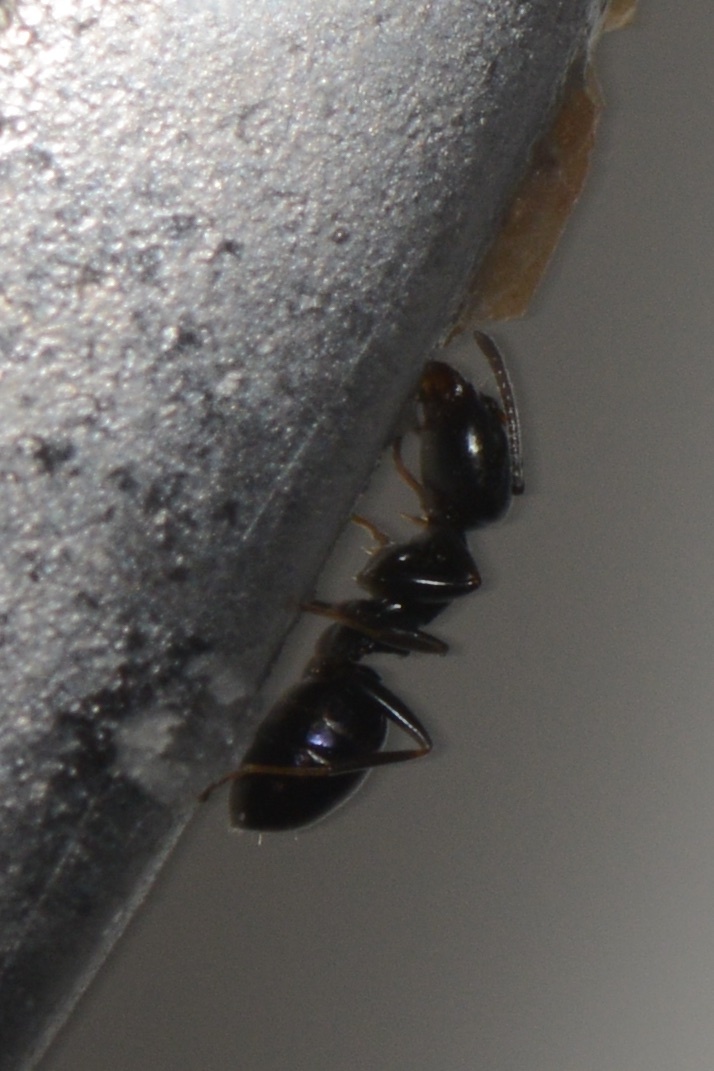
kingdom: Animalia
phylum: Arthropoda
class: Insecta
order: Hymenoptera
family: Formicidae
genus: Ochetellus
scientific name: Ochetellus glaber
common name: Ant
